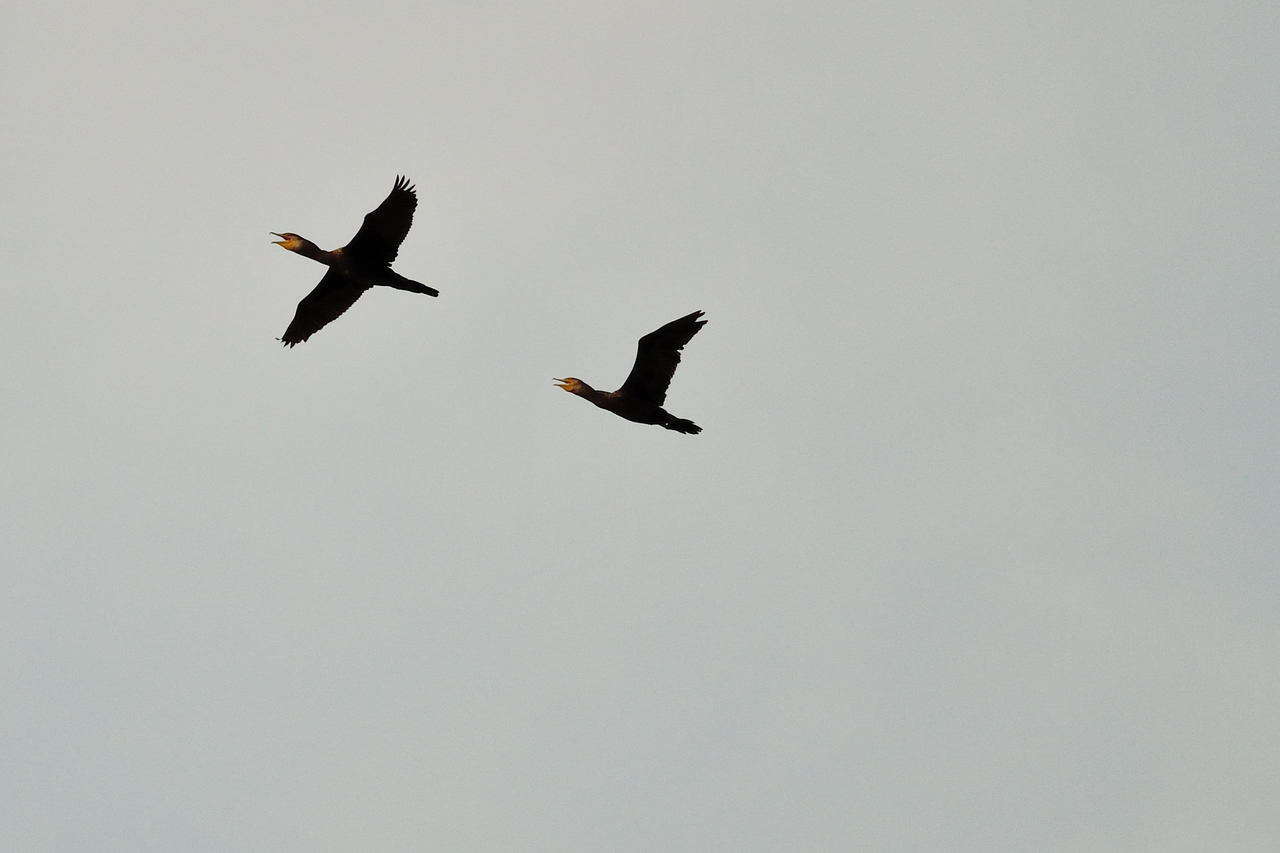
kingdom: Animalia
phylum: Chordata
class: Aves
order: Suliformes
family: Phalacrocoracidae
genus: Phalacrocorax
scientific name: Phalacrocorax carbo
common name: Great cormorant
